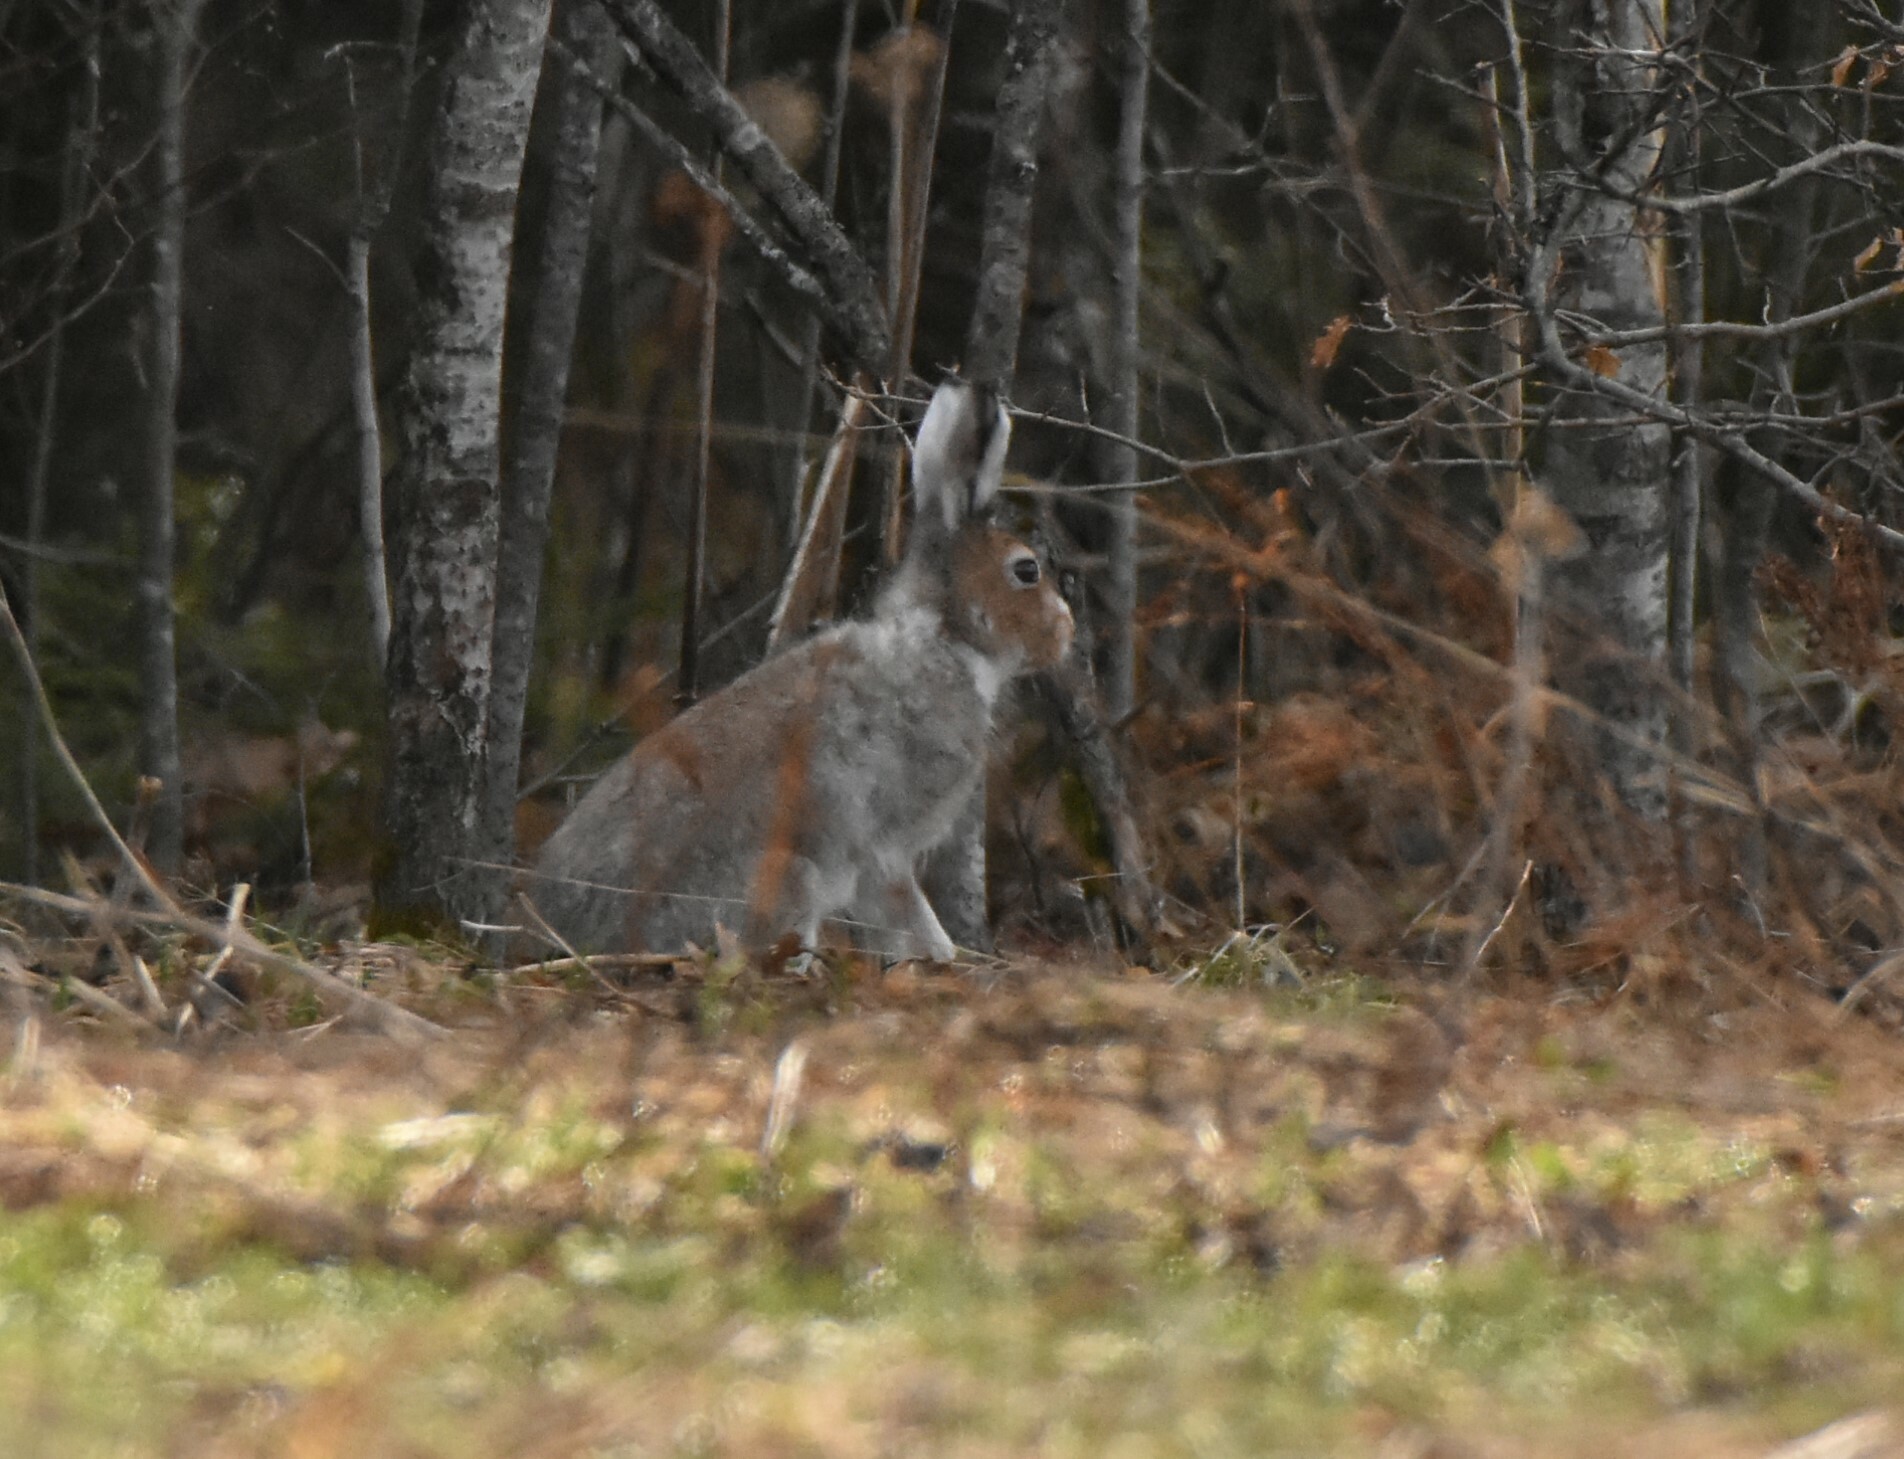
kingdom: Animalia
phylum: Chordata
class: Mammalia
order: Lagomorpha
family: Leporidae
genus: Lepus
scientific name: Lepus timidus
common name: Mountain hare
